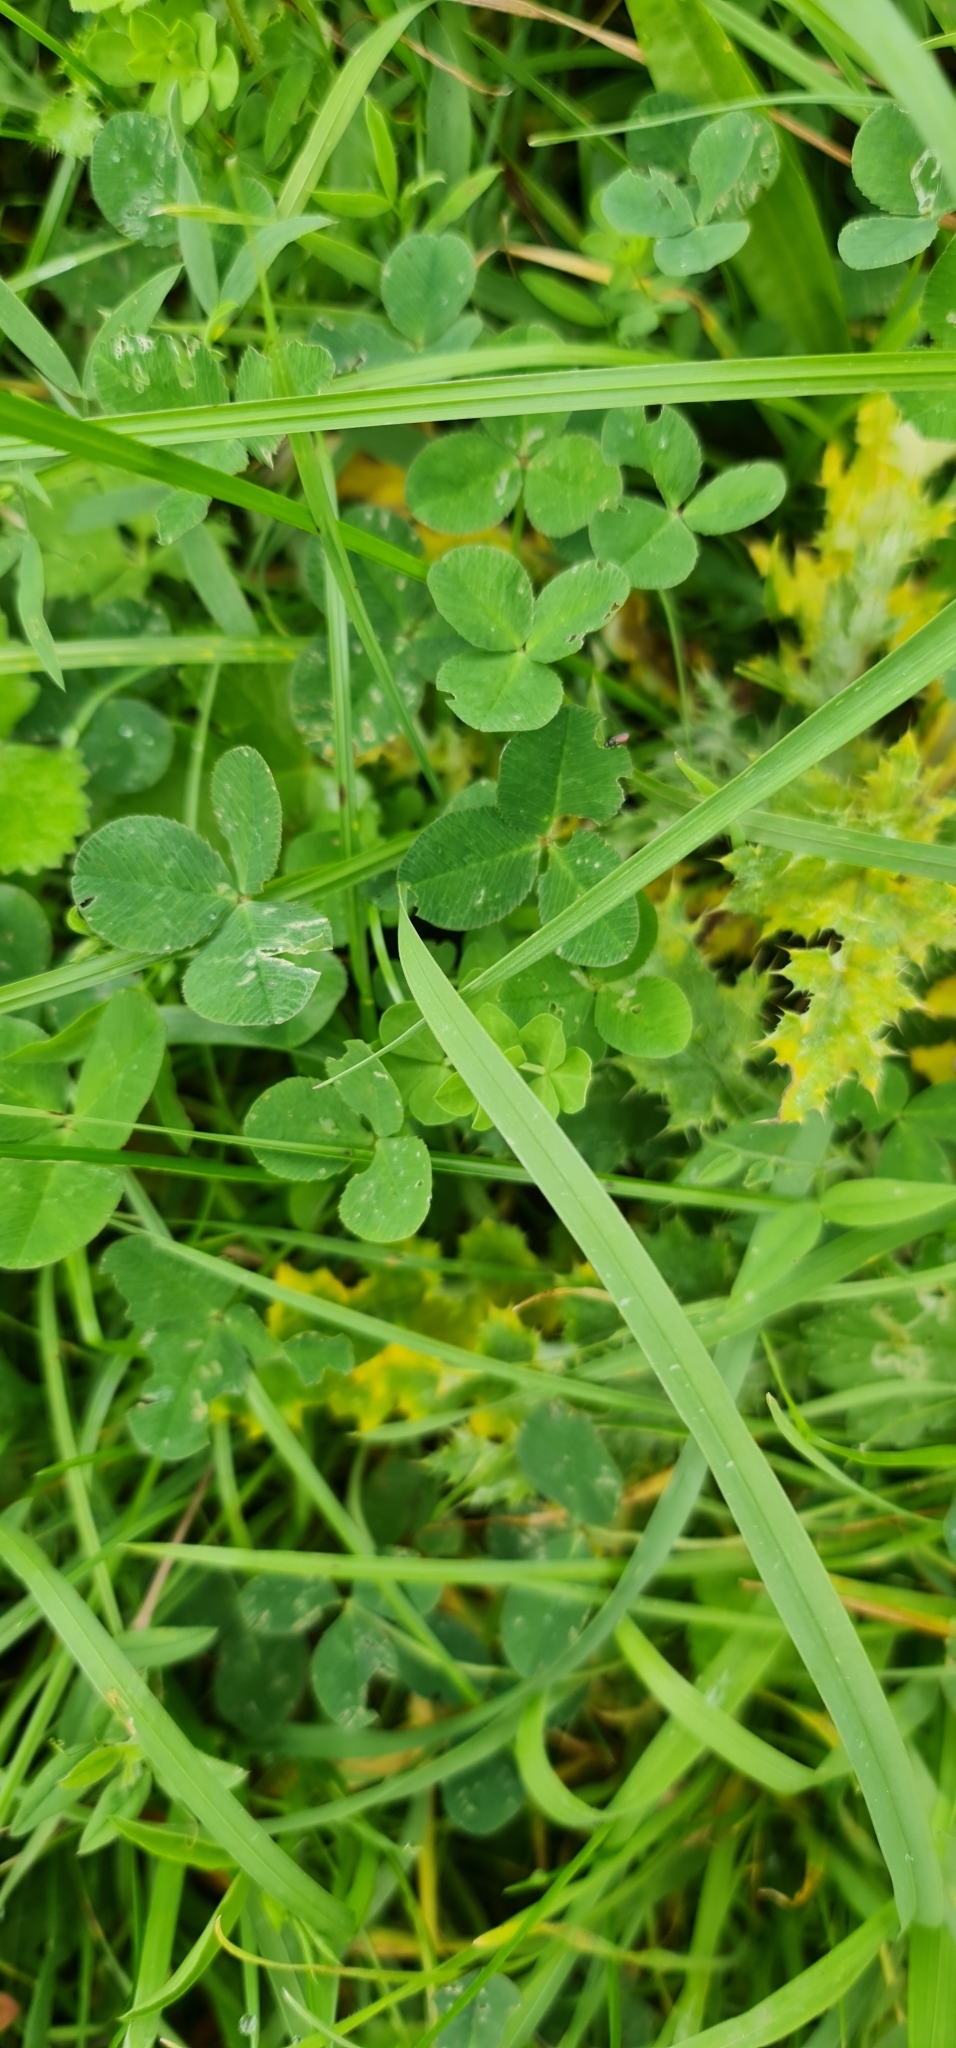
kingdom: Plantae
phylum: Tracheophyta
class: Magnoliopsida
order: Fabales
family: Fabaceae
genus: Trifolium
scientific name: Trifolium repens
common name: White clover
